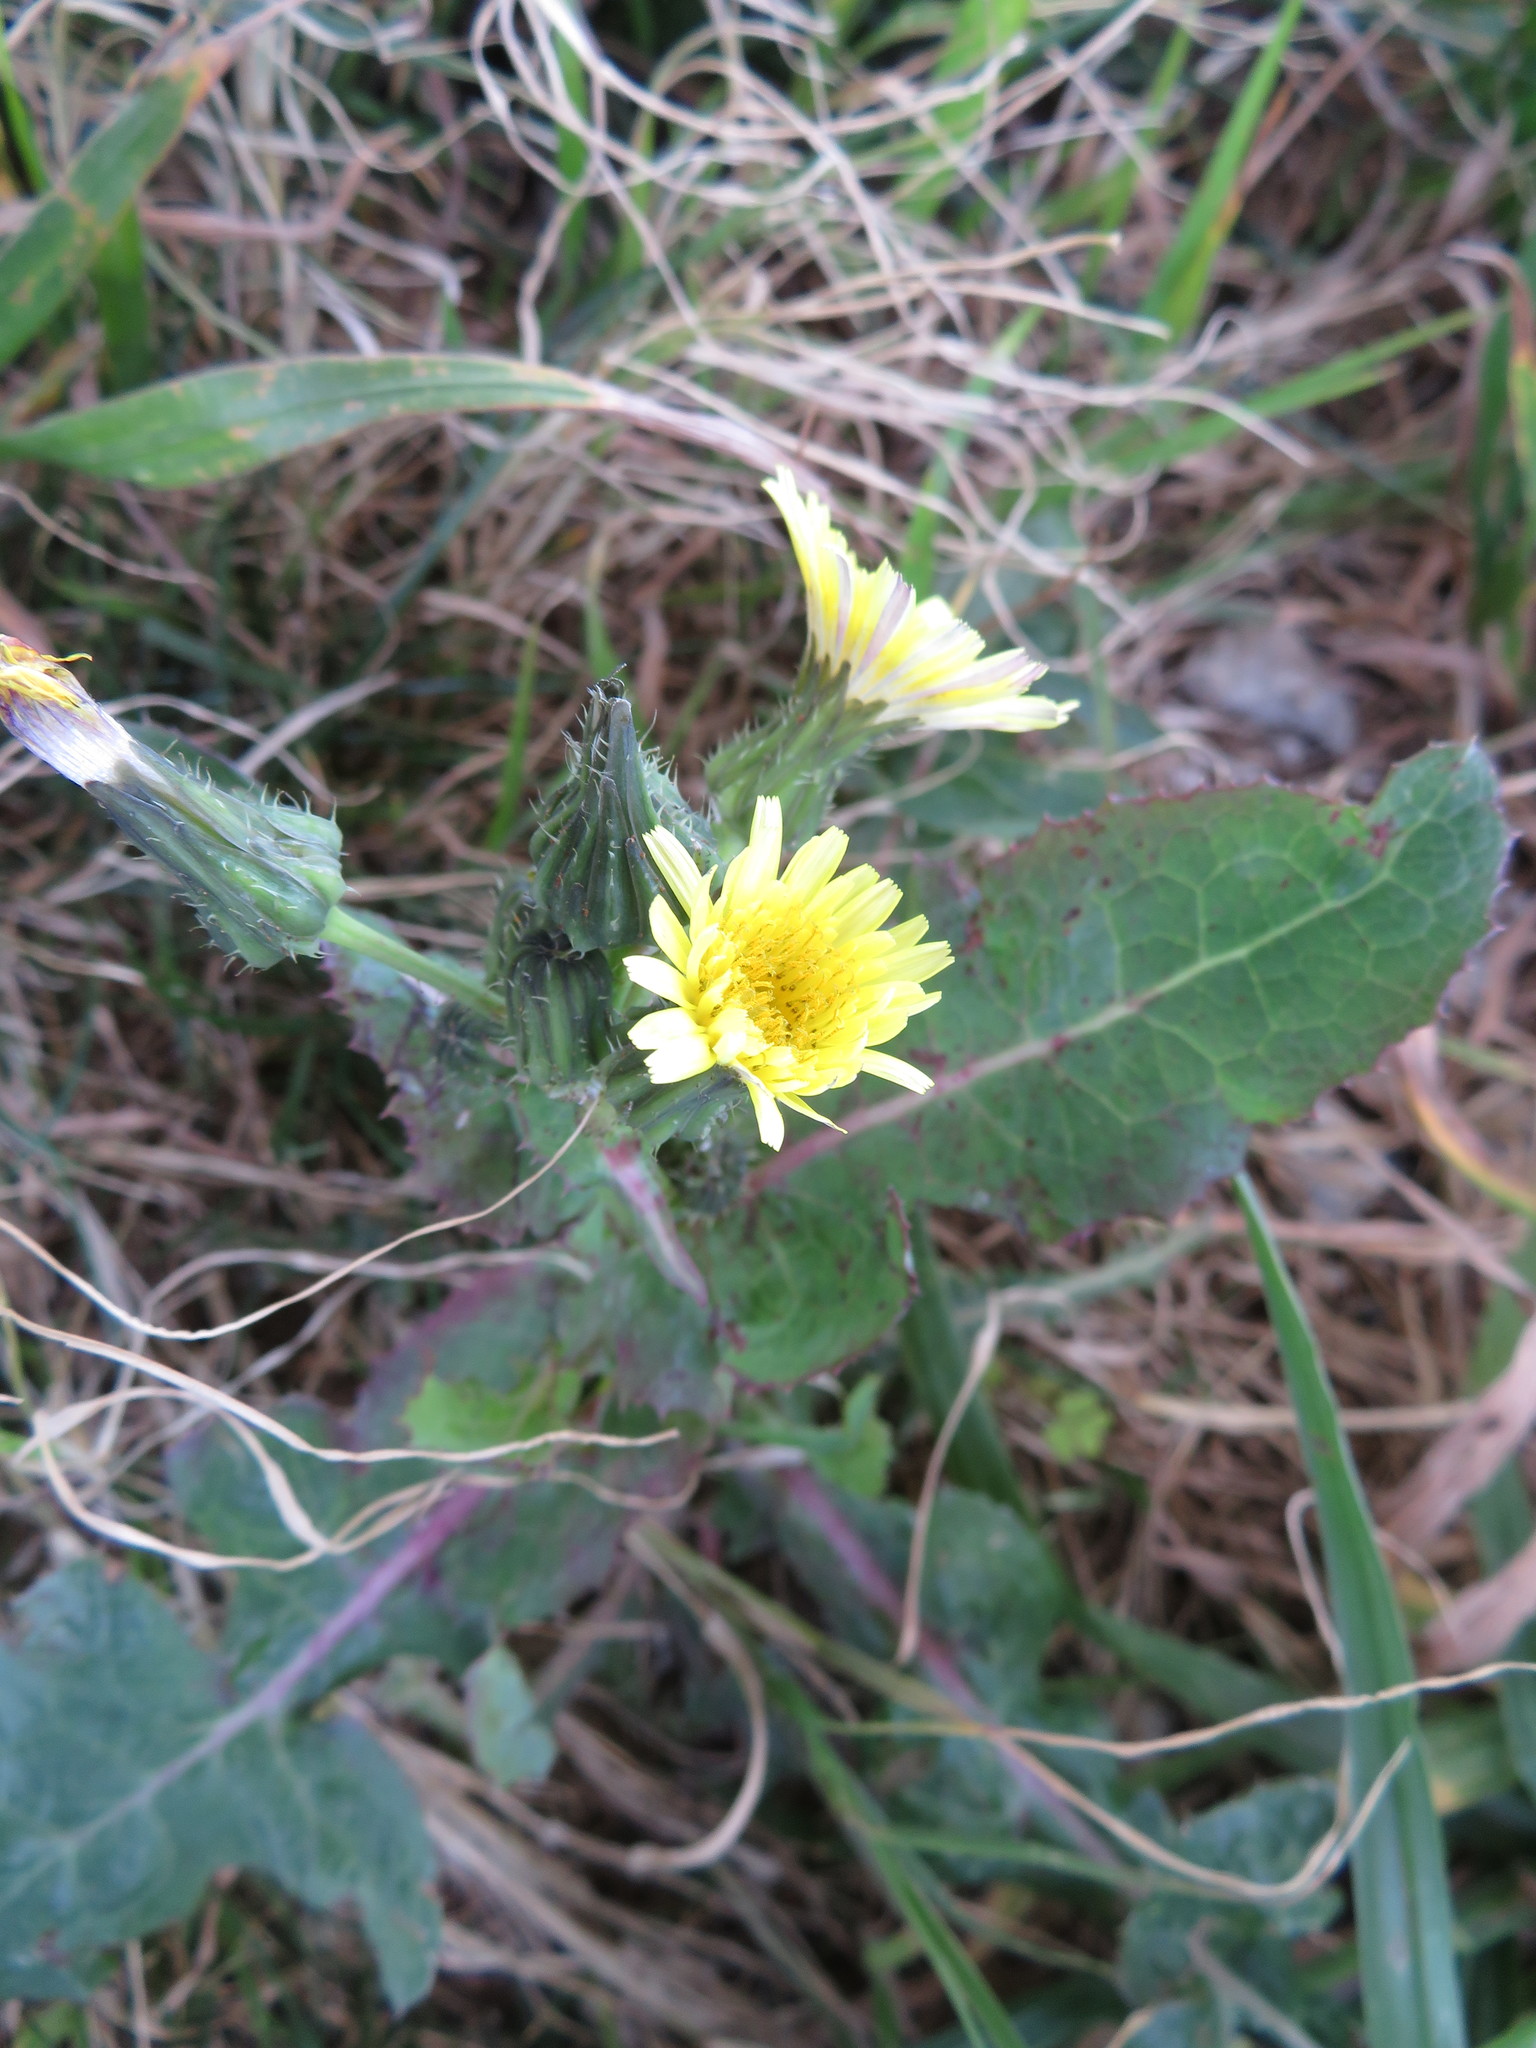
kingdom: Plantae
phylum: Tracheophyta
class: Magnoliopsida
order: Asterales
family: Asteraceae
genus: Sonchus
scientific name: Sonchus oleraceus
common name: Common sowthistle
